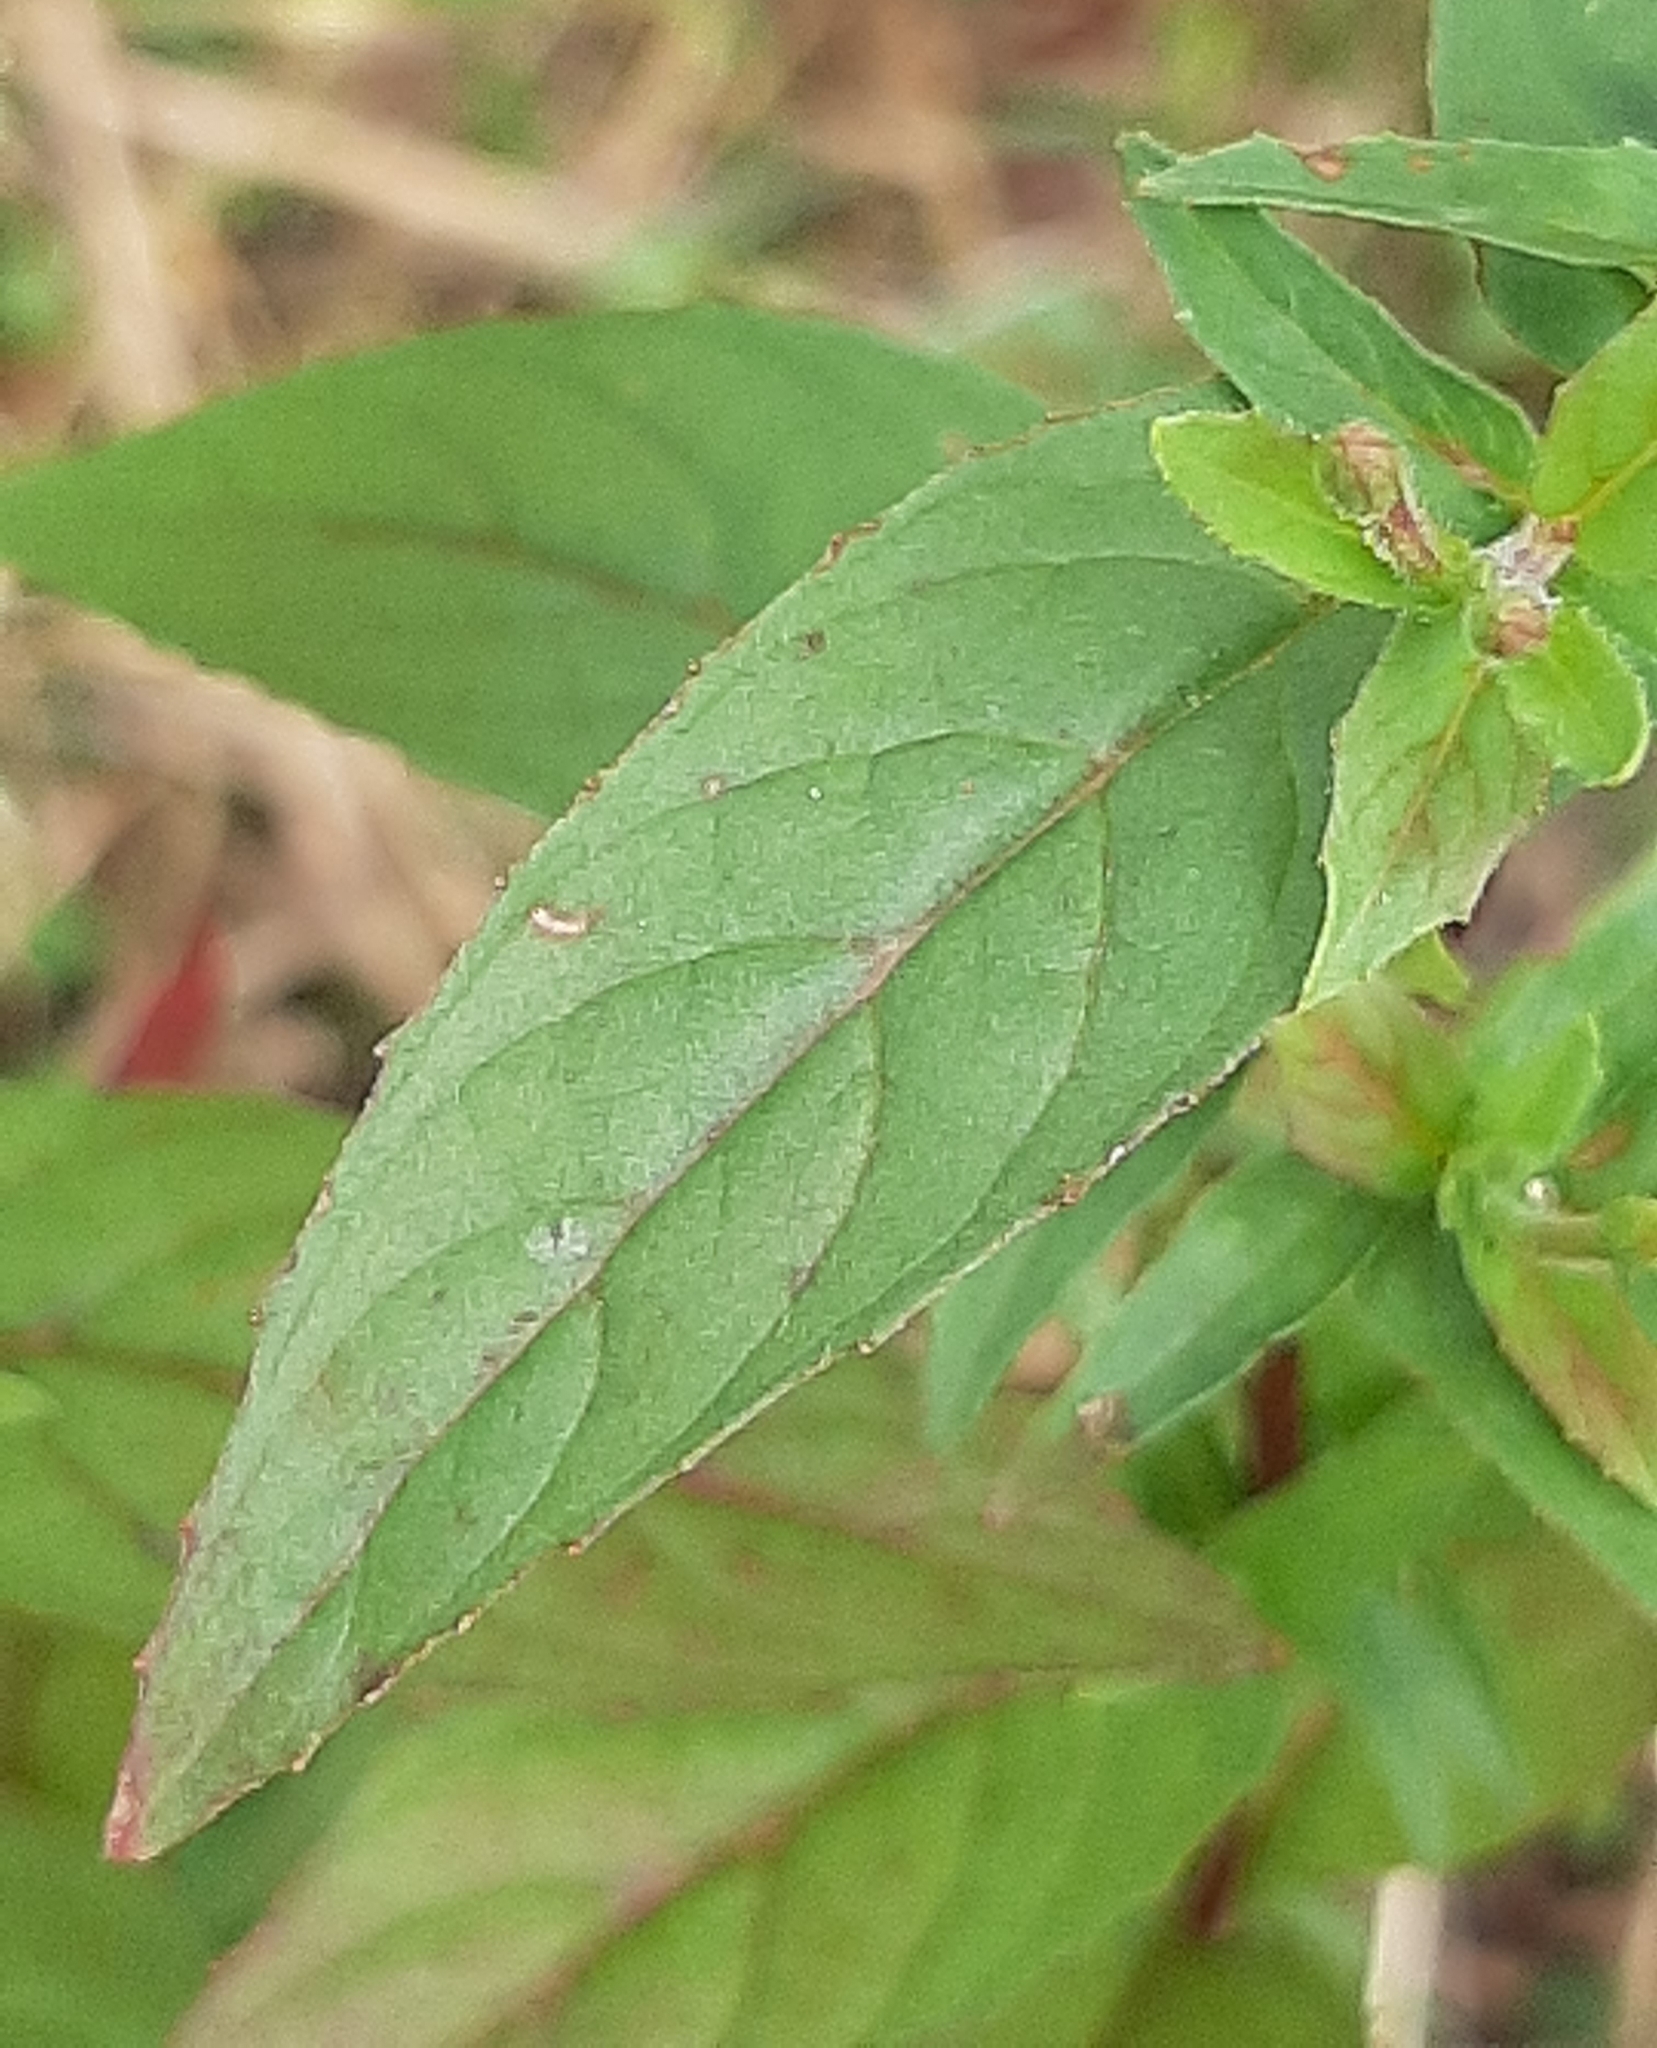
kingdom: Plantae
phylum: Tracheophyta
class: Magnoliopsida
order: Myrtales
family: Onagraceae
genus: Epilobium
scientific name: Epilobium ciliatum
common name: American willowherb
